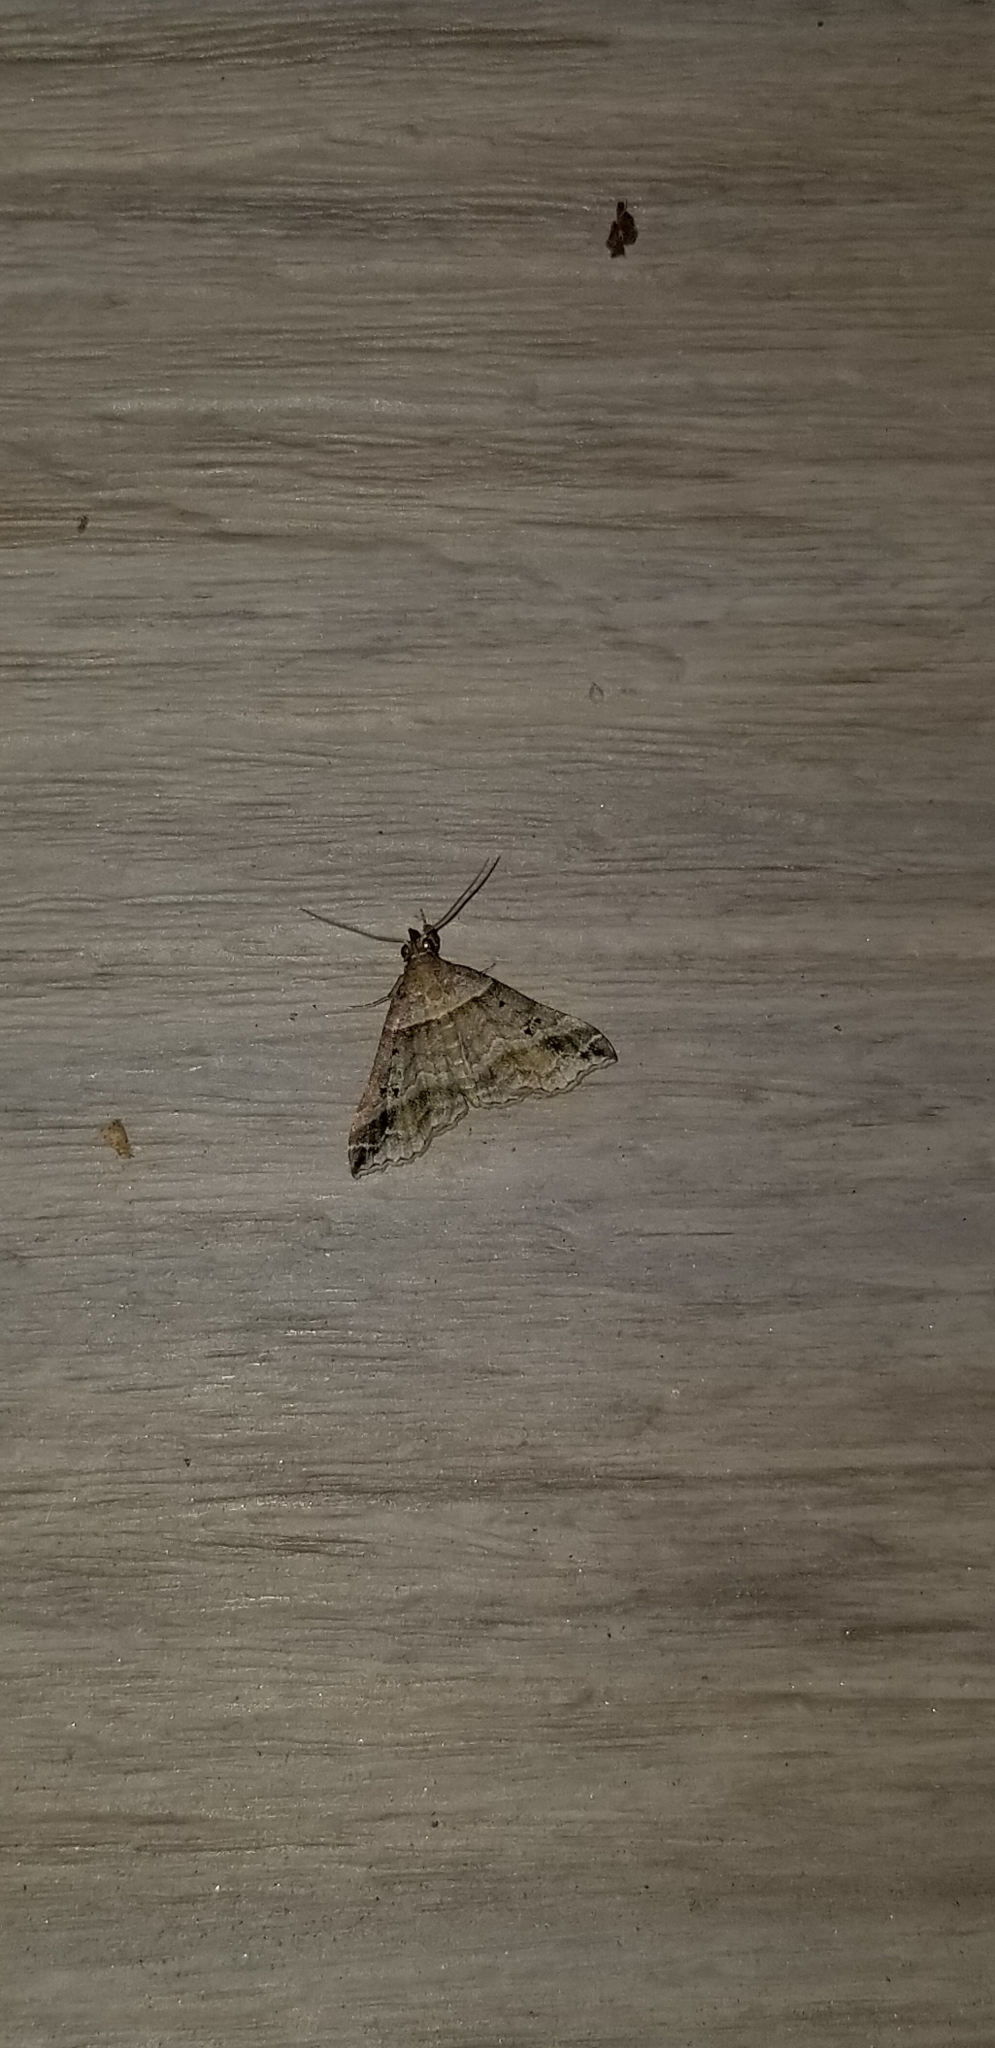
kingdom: Animalia
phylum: Arthropoda
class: Insecta
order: Lepidoptera
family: Erebidae
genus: Phaeolita
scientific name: Phaeolita pyramusalis
